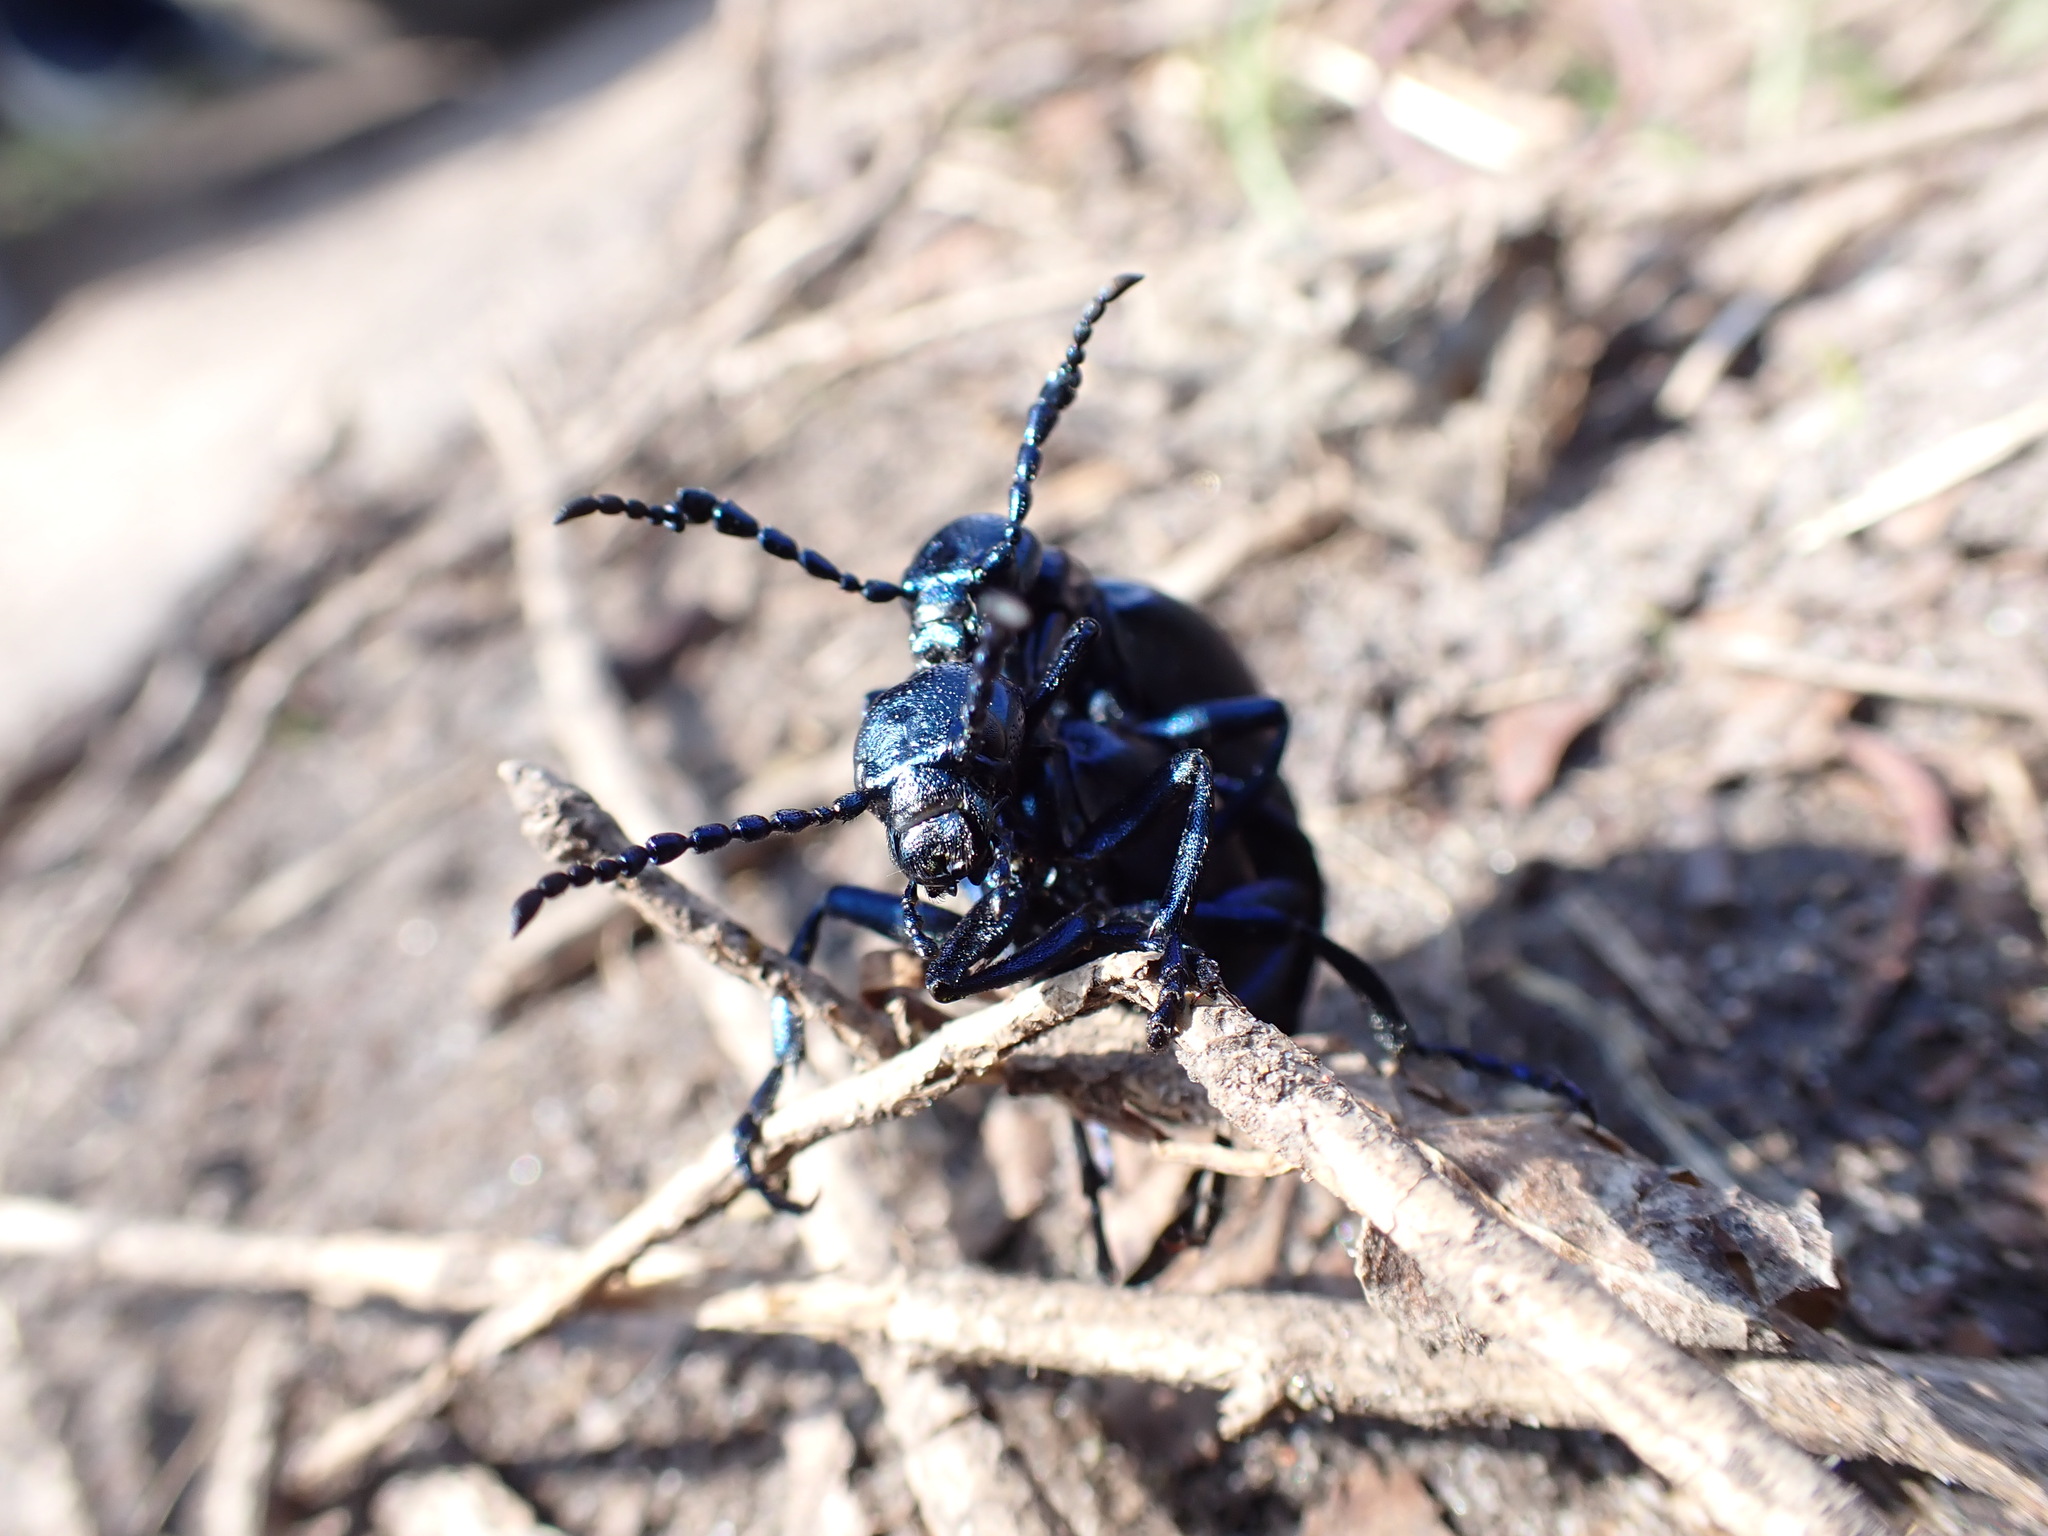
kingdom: Animalia
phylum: Arthropoda
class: Insecta
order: Coleoptera
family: Meloidae
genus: Meloe
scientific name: Meloe violaceus
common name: Violet oil-beetle
